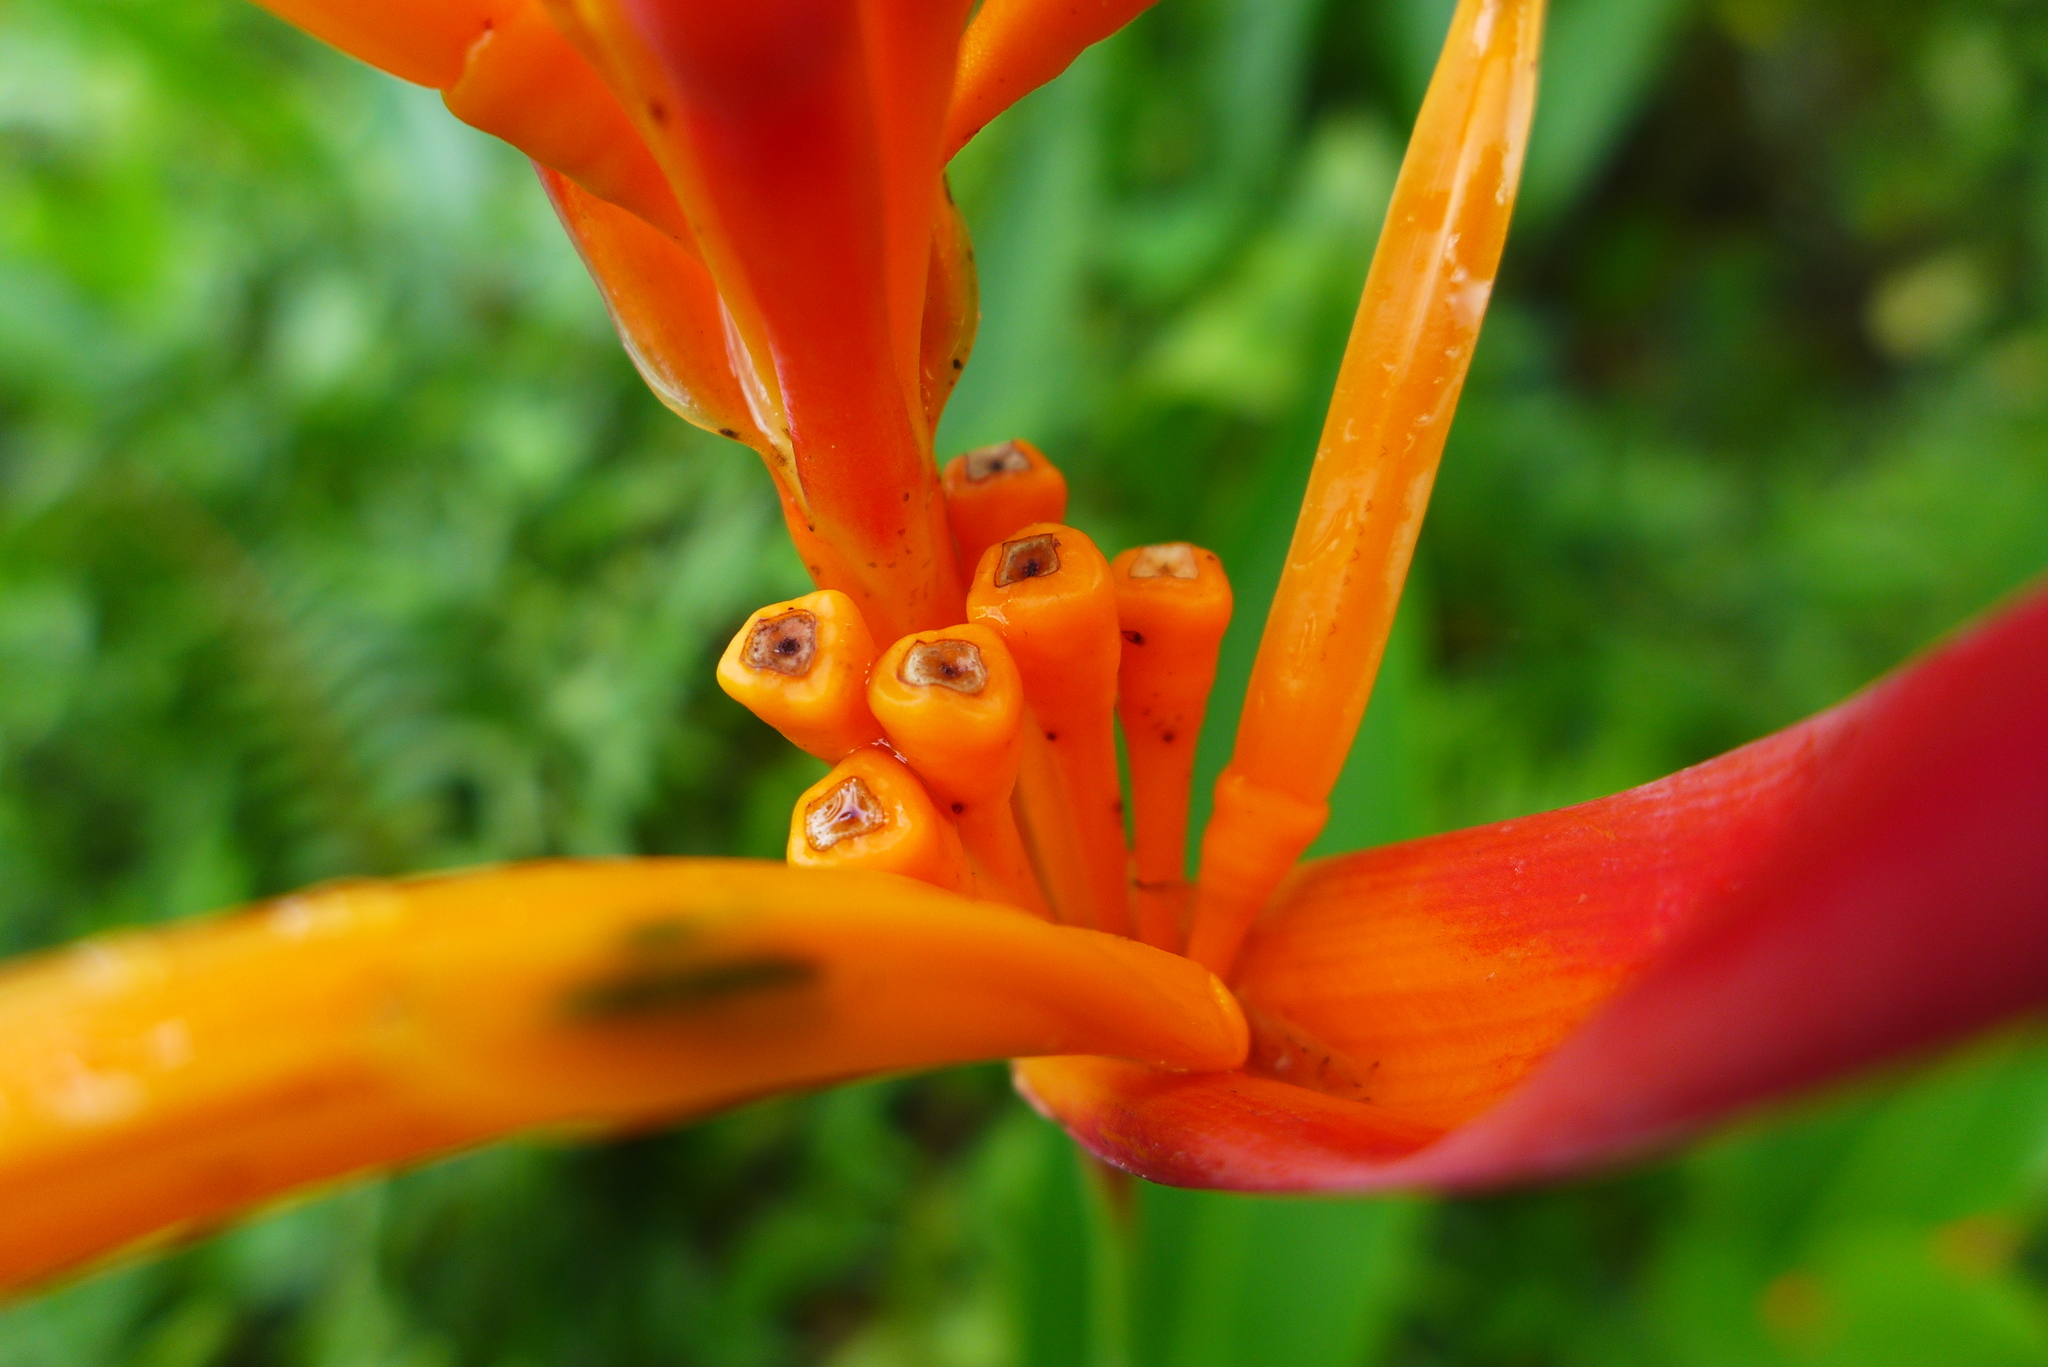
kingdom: Plantae
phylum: Tracheophyta
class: Liliopsida
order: Zingiberales
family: Heliconiaceae
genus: Heliconia
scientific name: Heliconia psittacorum
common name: Parrot's-flower
